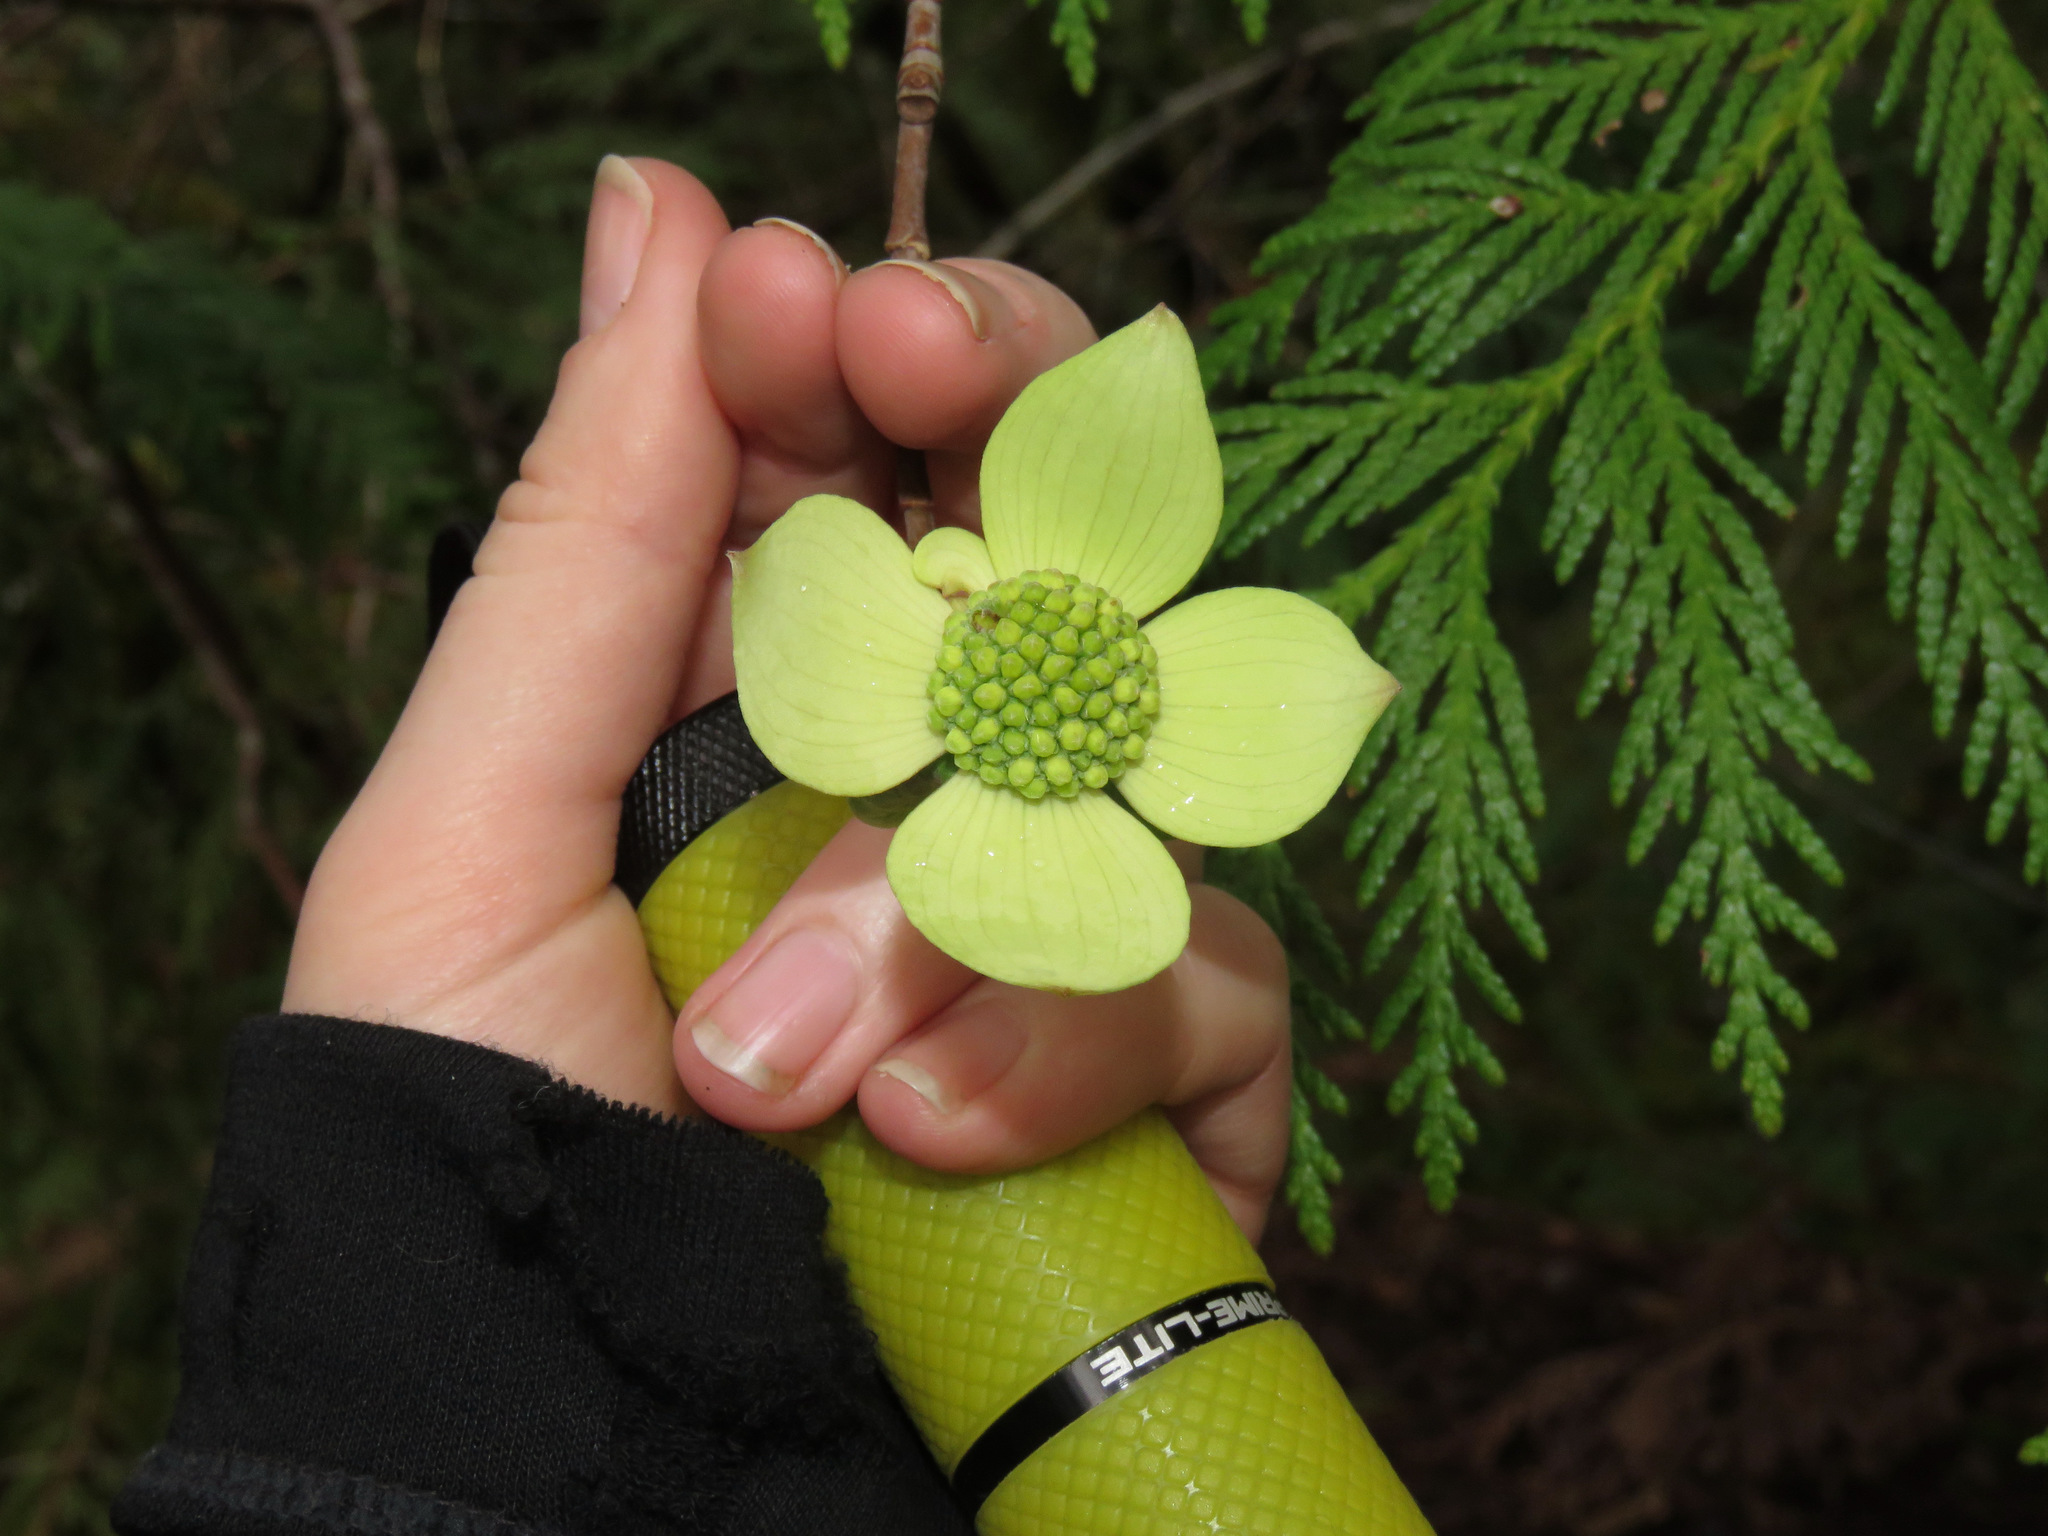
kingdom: Plantae
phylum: Tracheophyta
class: Magnoliopsida
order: Cornales
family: Cornaceae
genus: Cornus
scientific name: Cornus nuttallii
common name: Pacific dogwood
